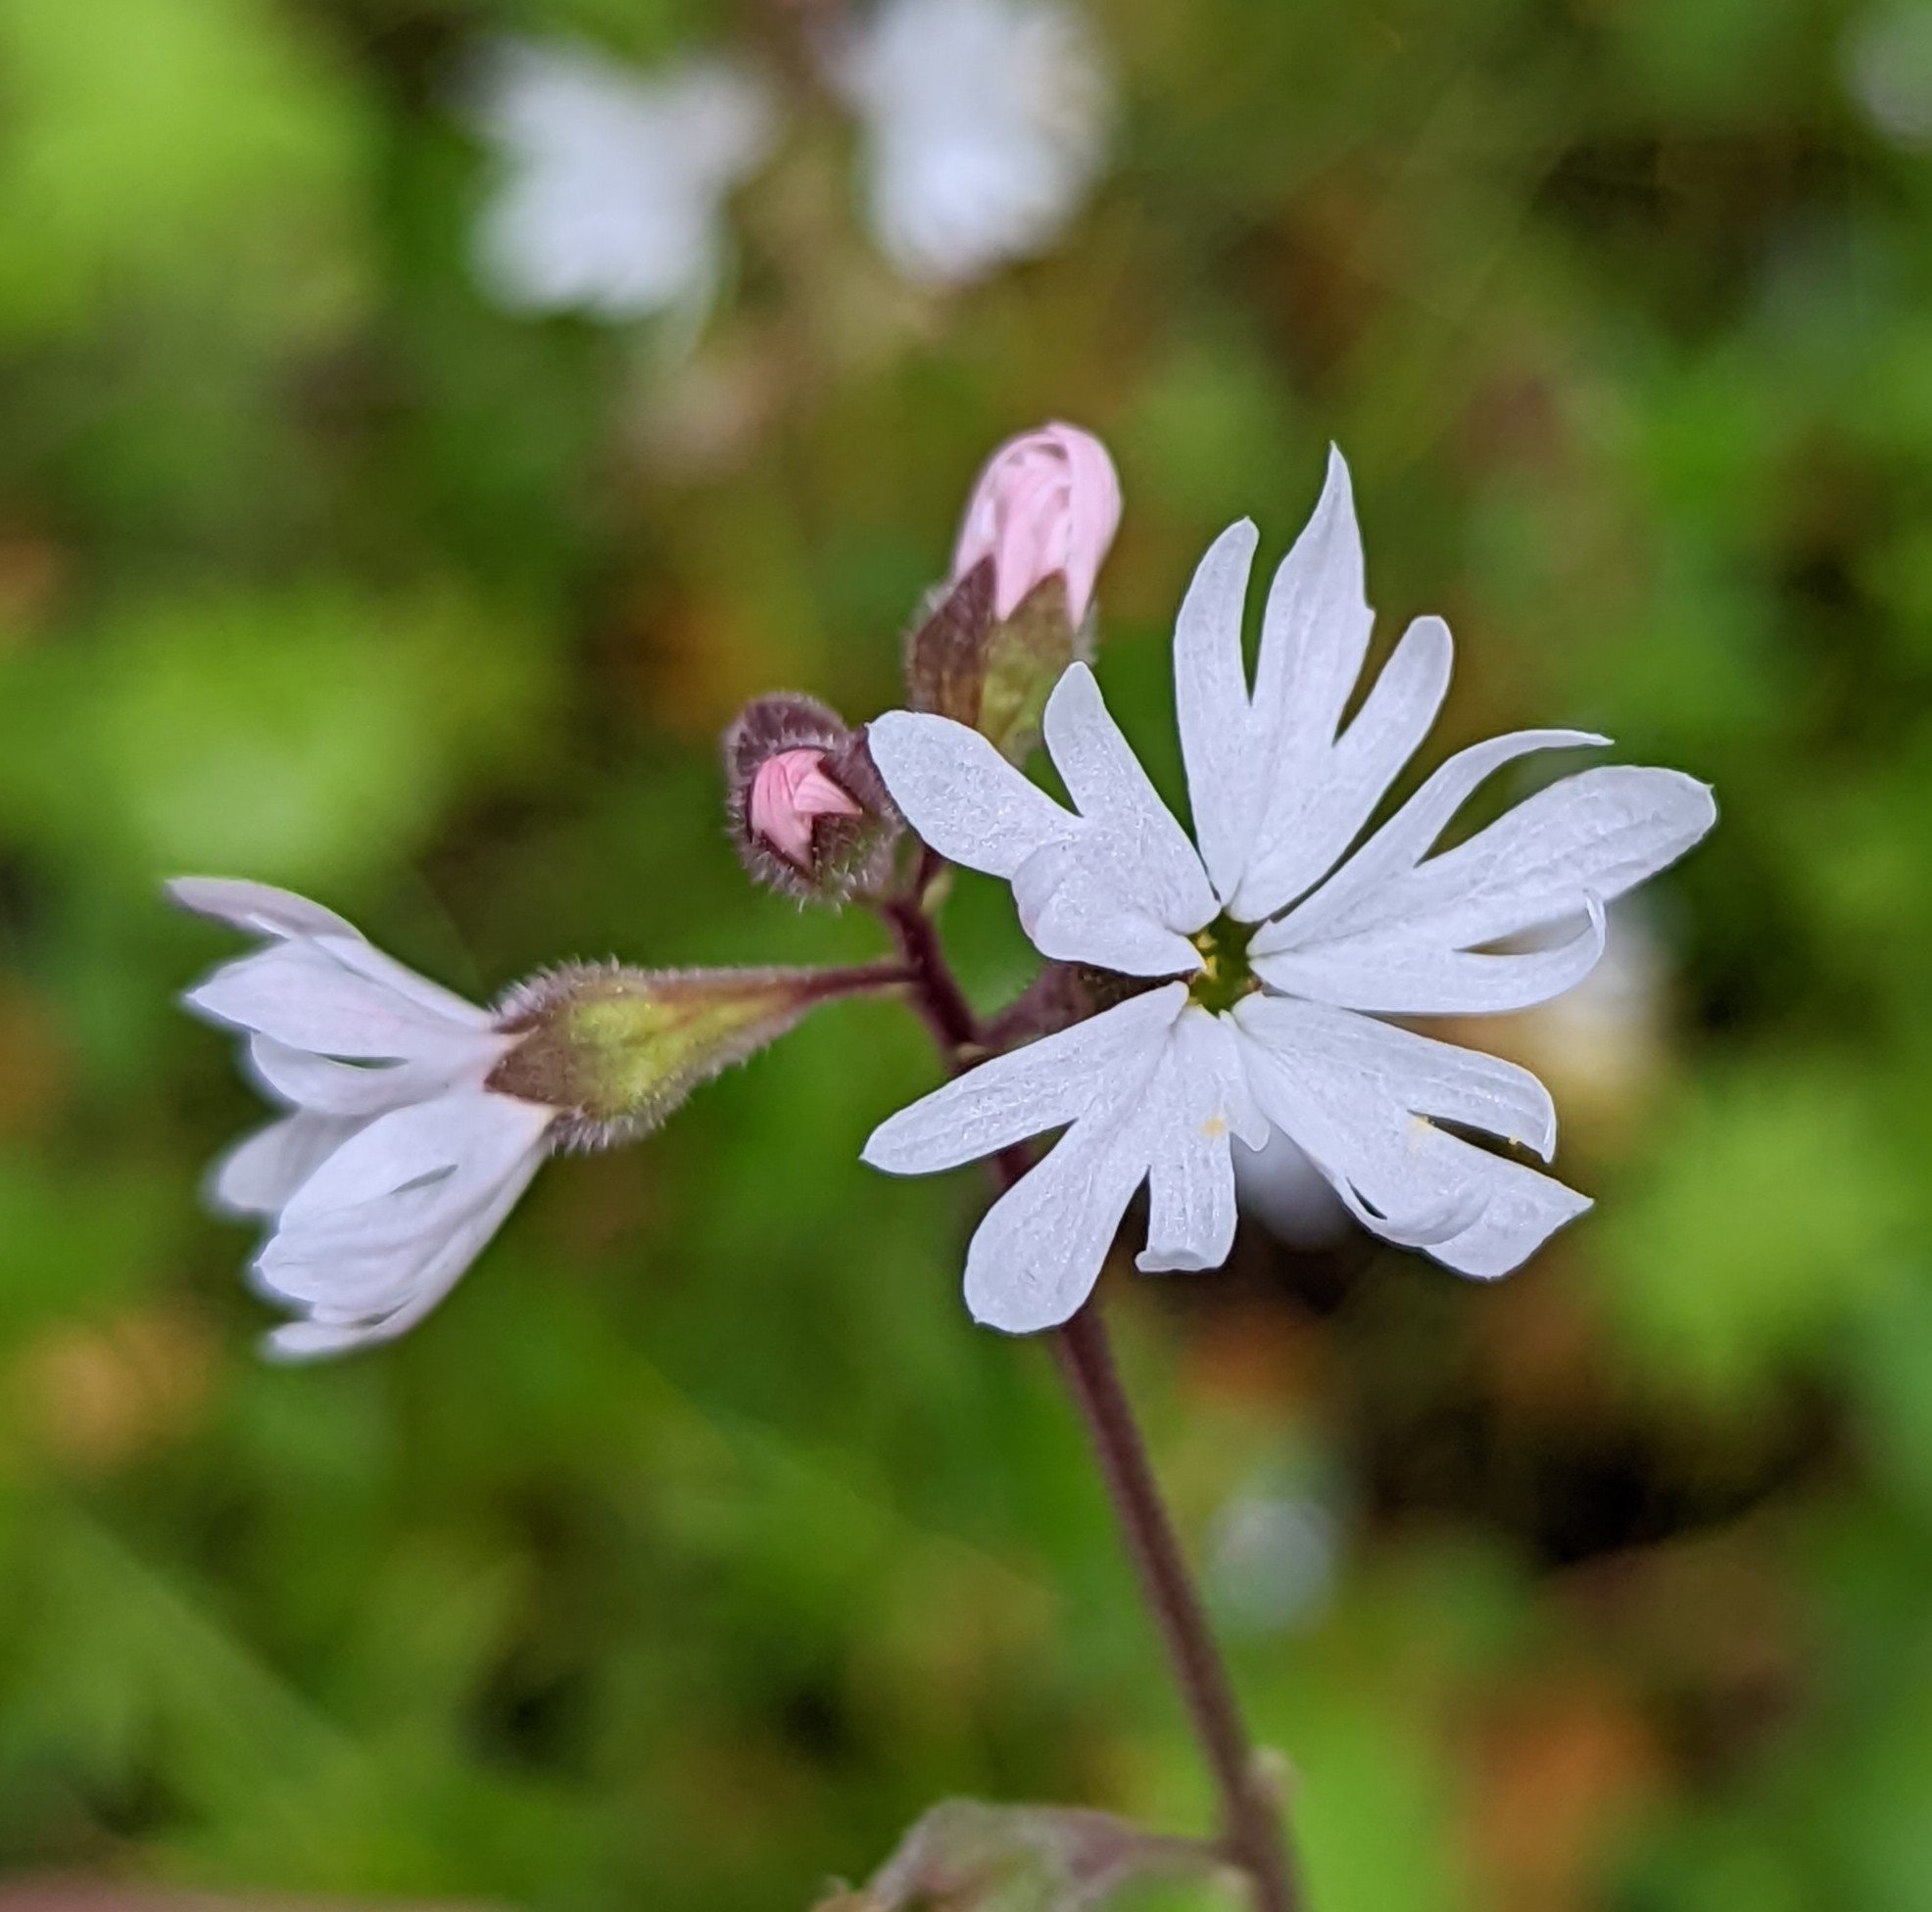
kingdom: Plantae
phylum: Tracheophyta
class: Magnoliopsida
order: Saxifragales
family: Saxifragaceae
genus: Lithophragma
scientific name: Lithophragma parviflorum
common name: Small-flowered fringe-cup
